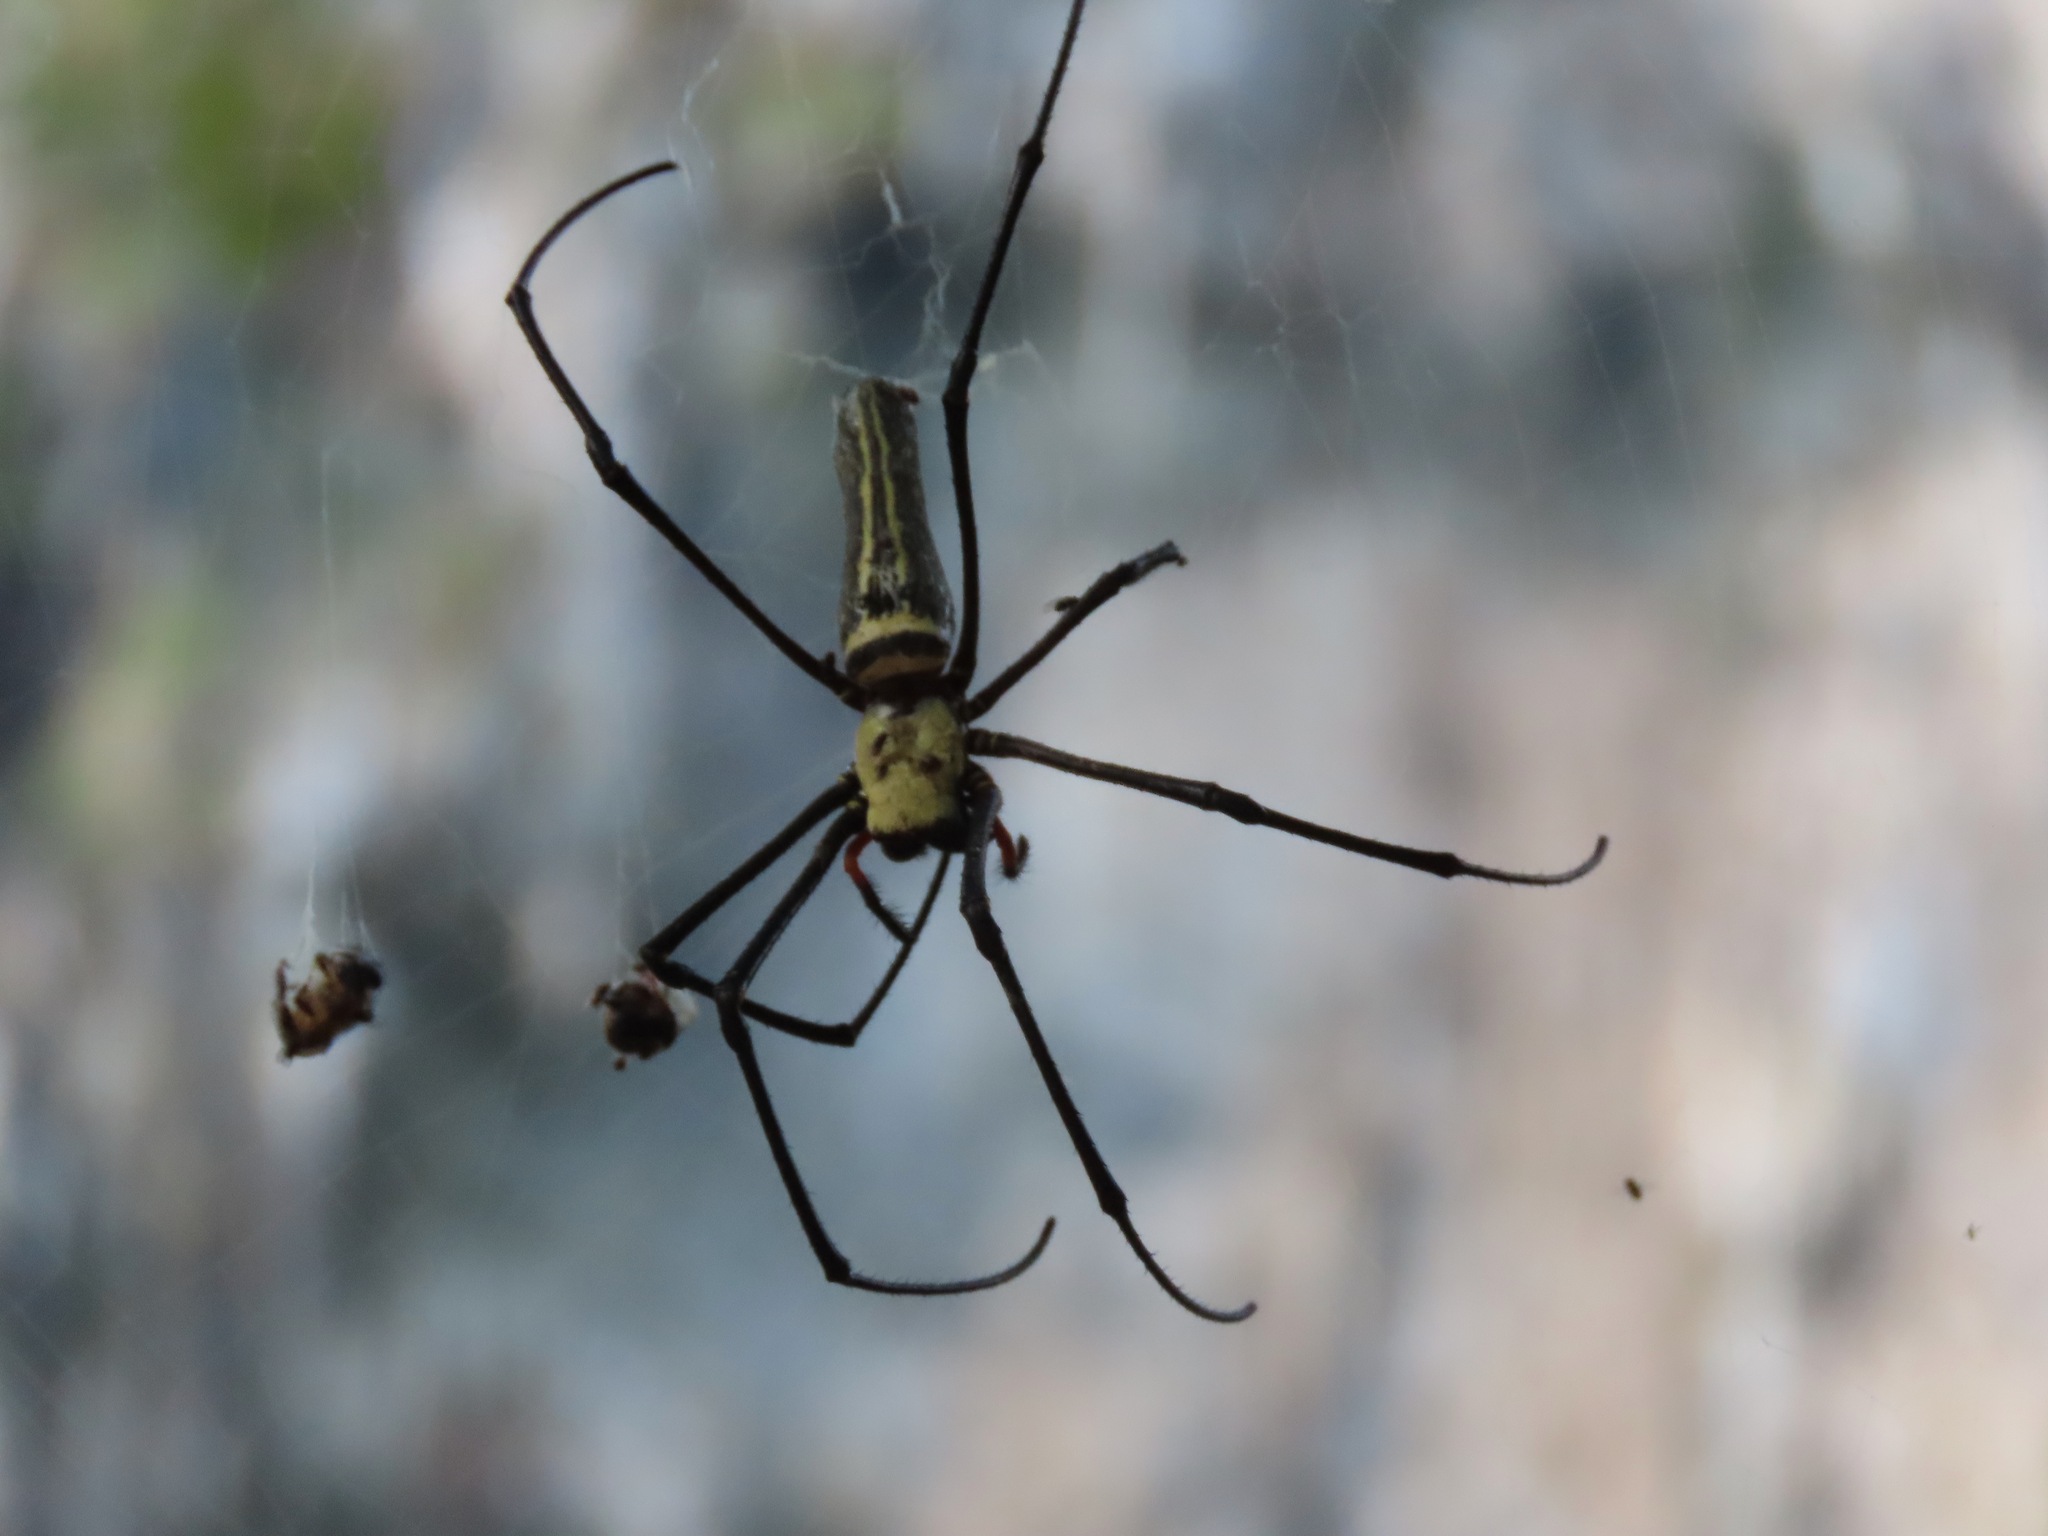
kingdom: Animalia
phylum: Arthropoda
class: Arachnida
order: Araneae
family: Araneidae
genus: Nephila
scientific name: Nephila pilipes
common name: Giant golden orb weaver
